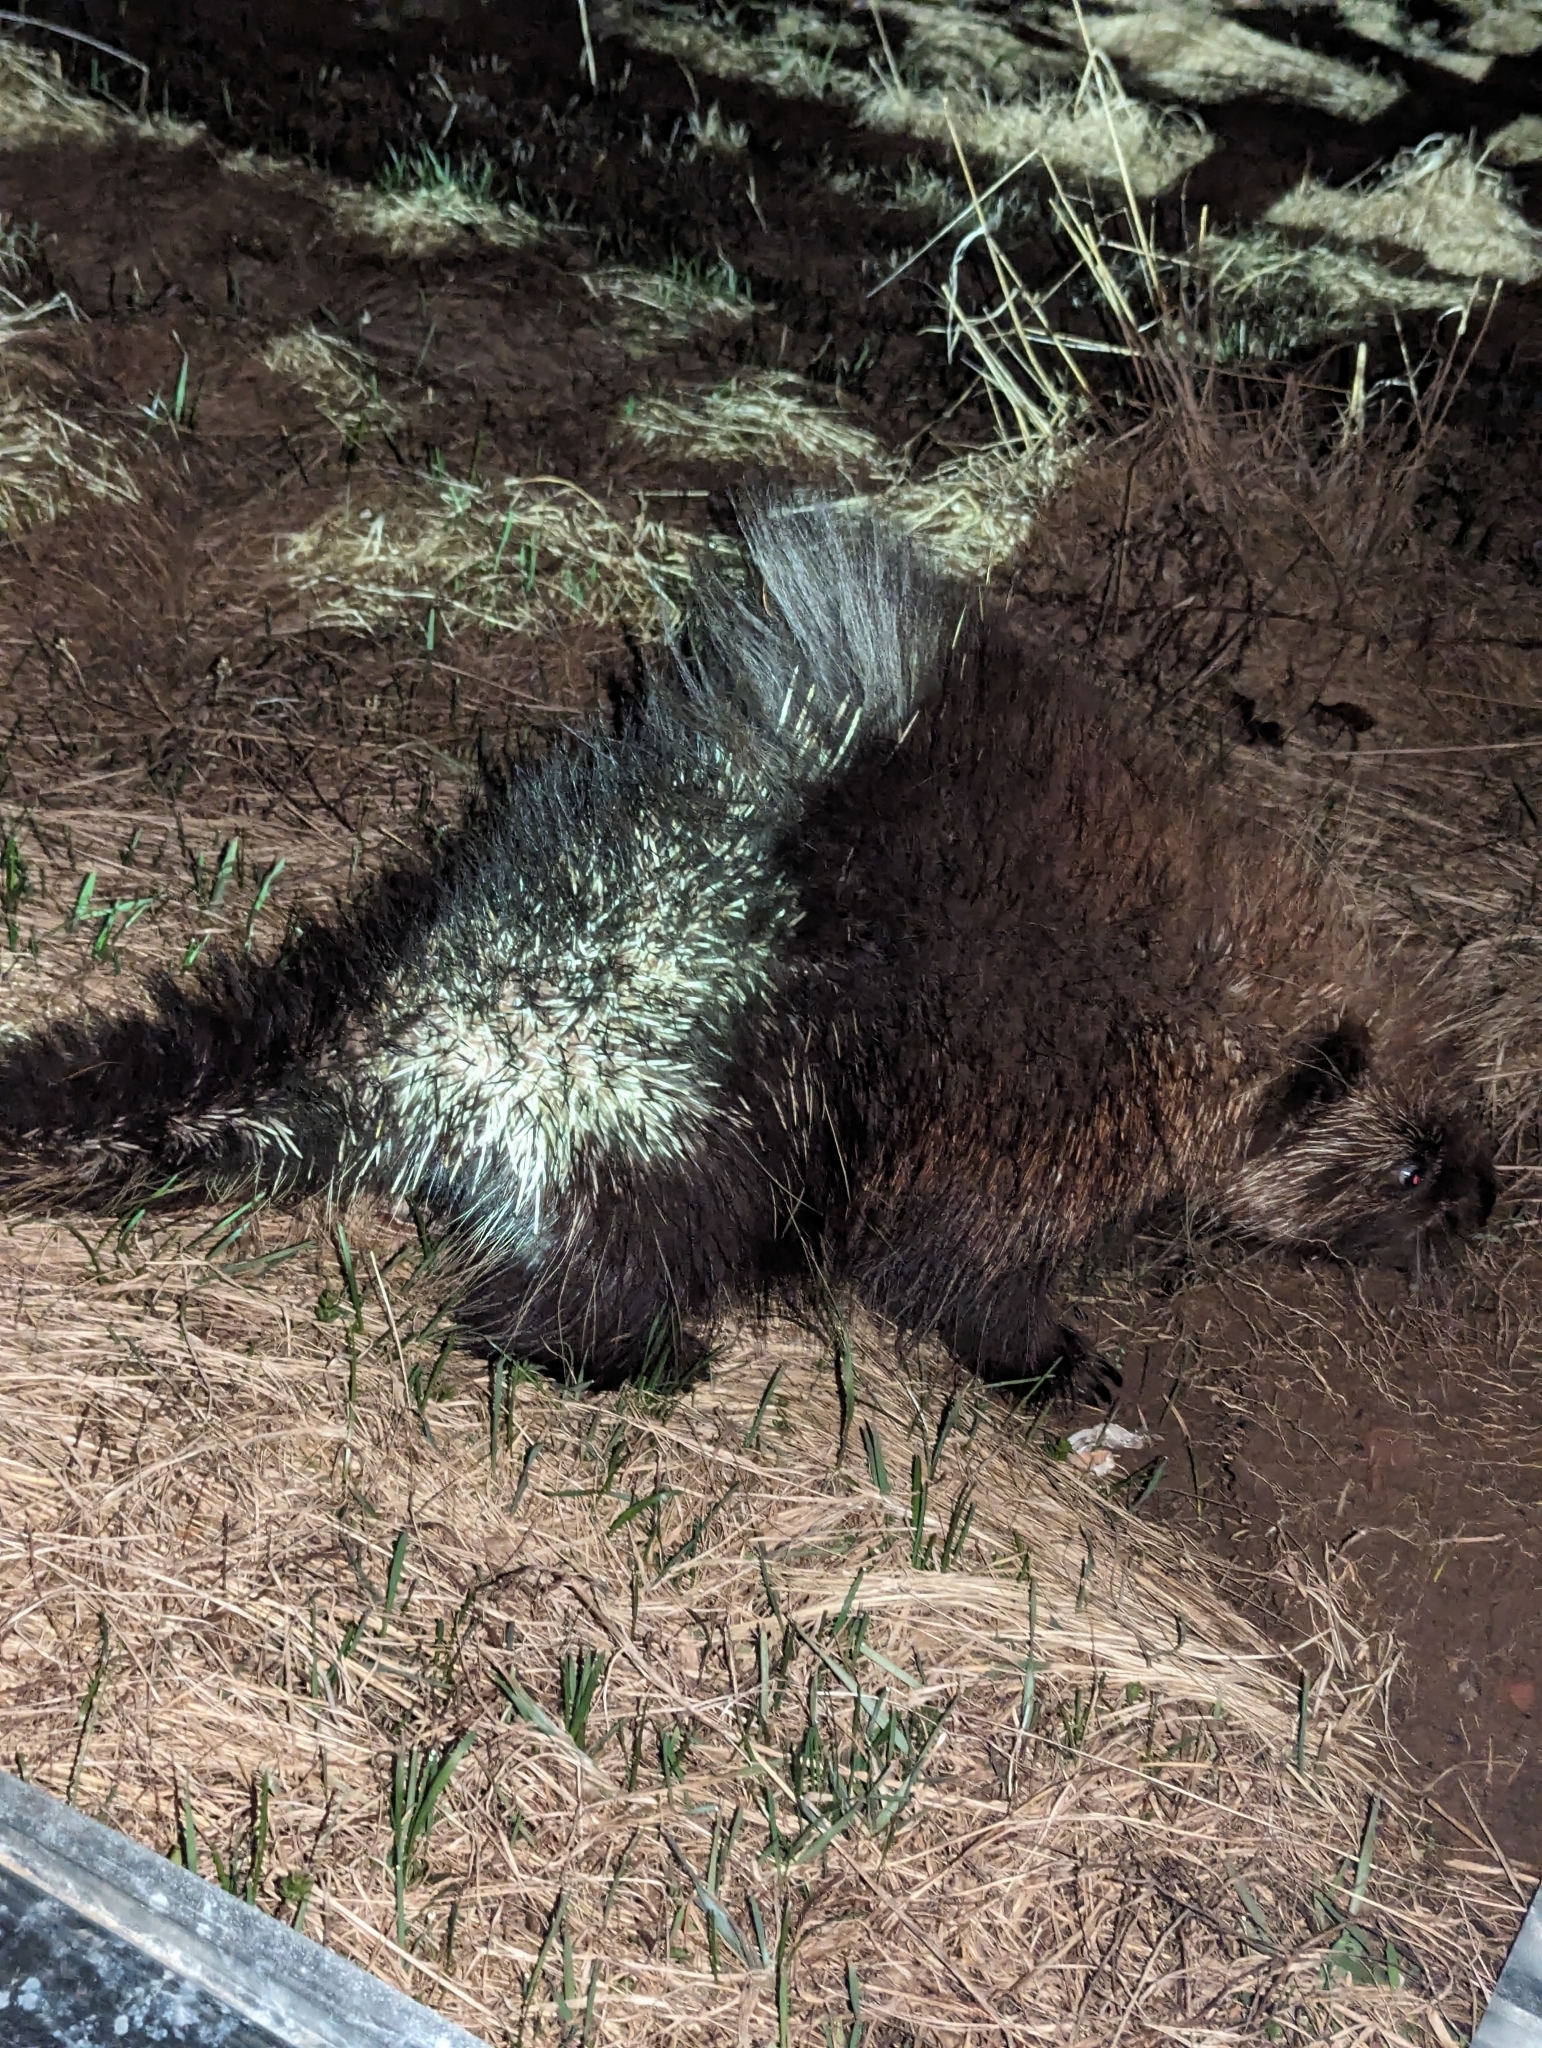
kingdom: Animalia
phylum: Chordata
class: Mammalia
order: Rodentia
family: Erethizontidae
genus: Erethizon
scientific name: Erethizon dorsatus
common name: North american porcupine
